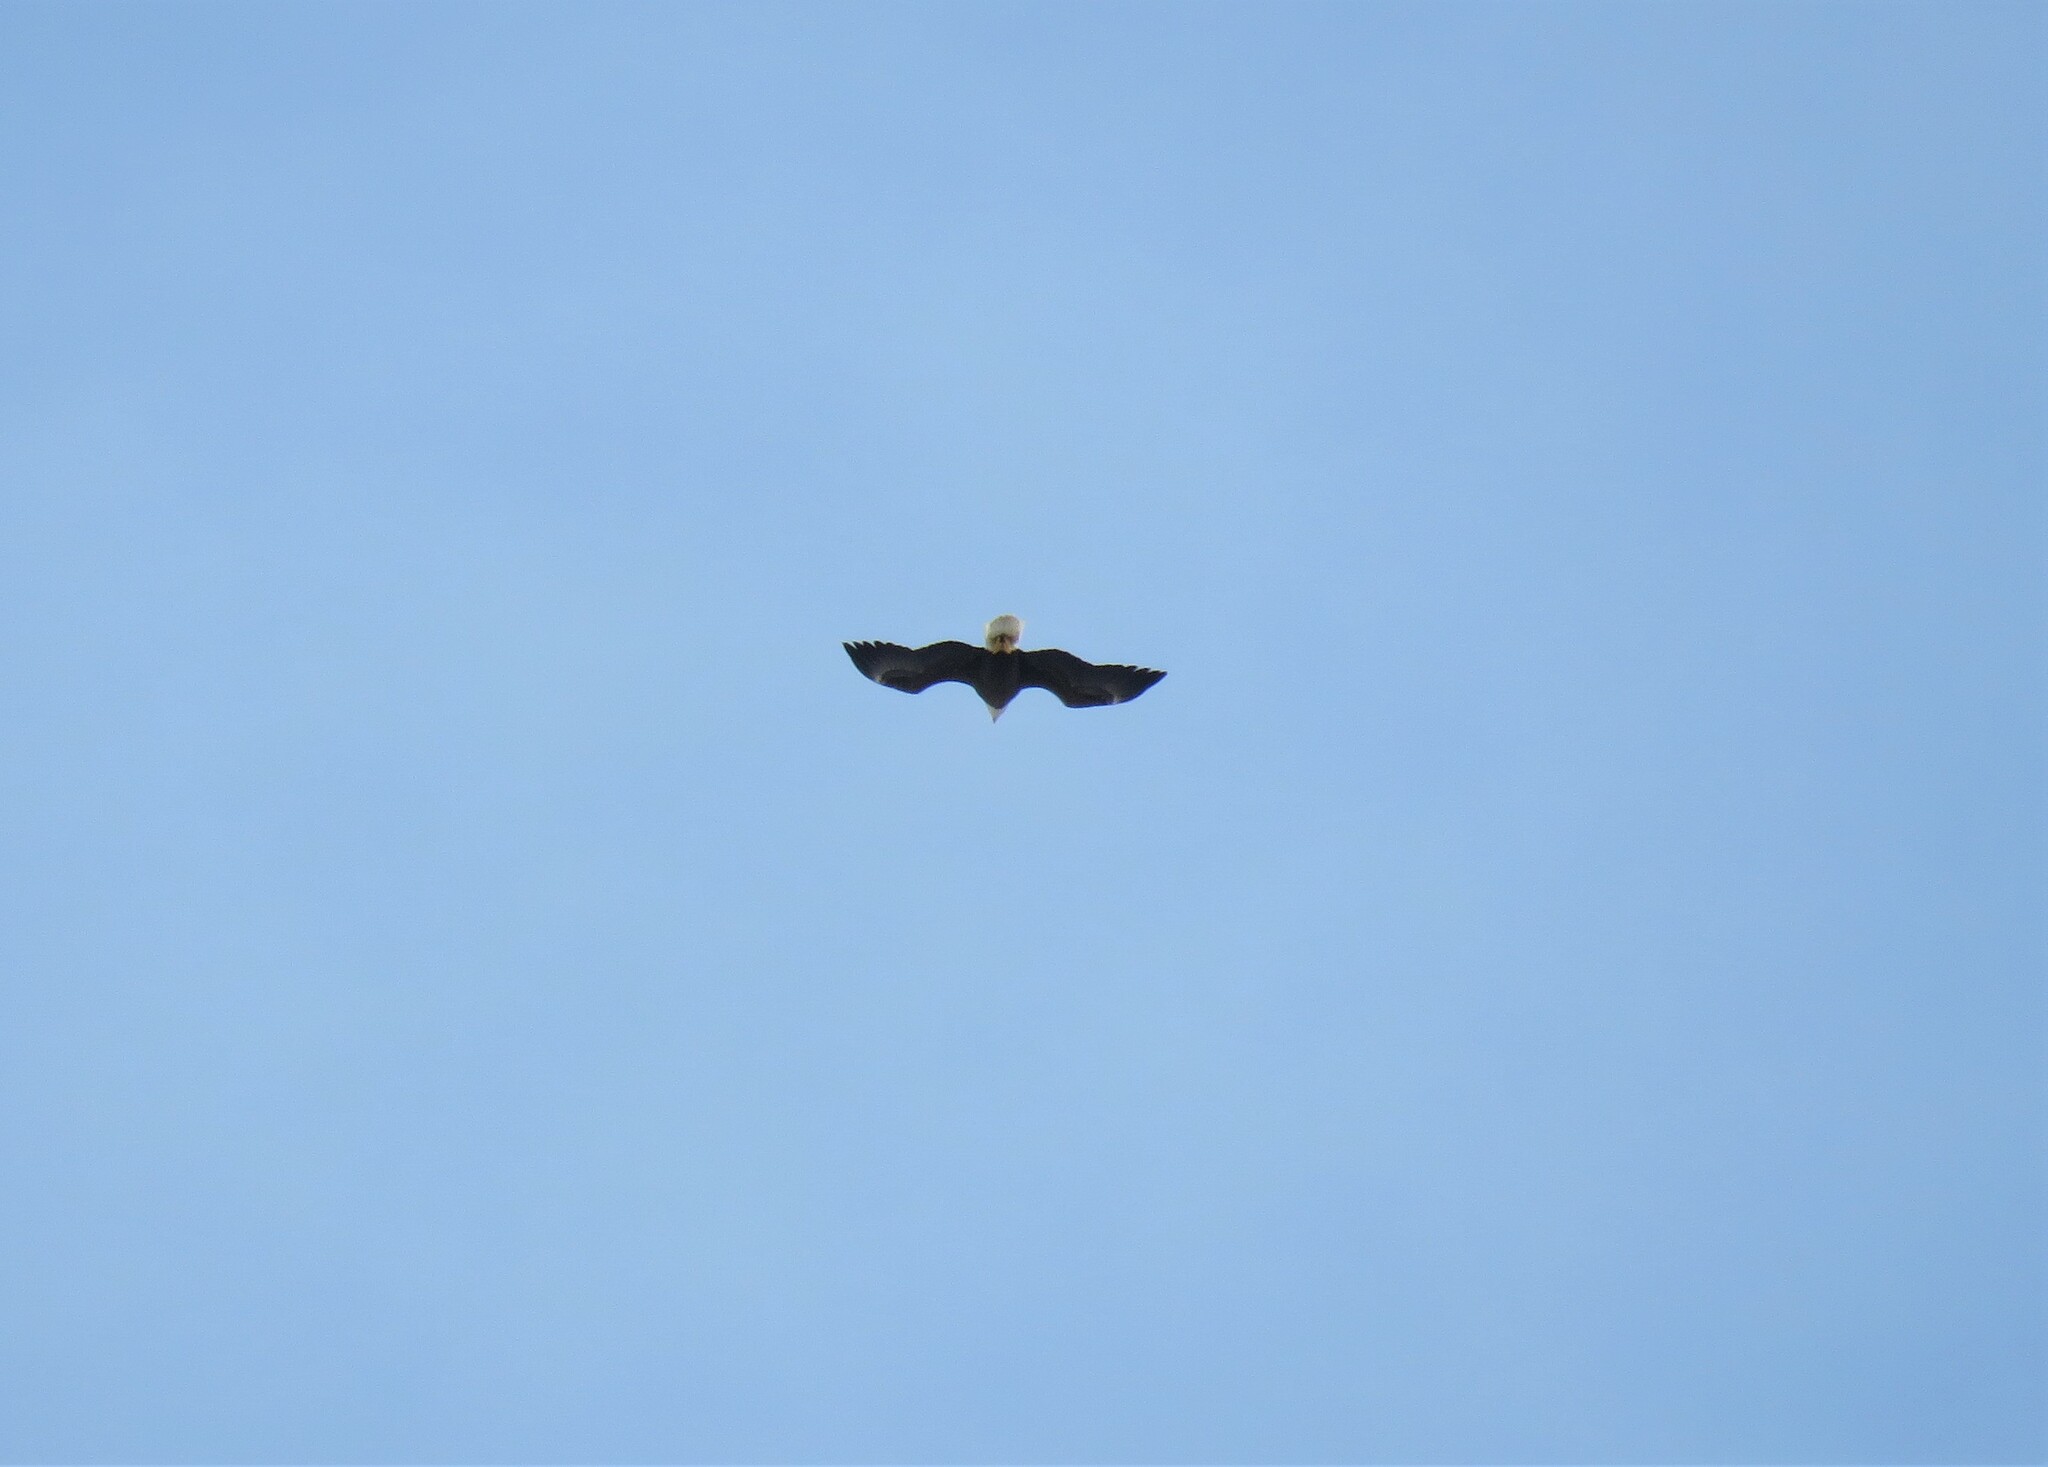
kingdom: Animalia
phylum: Chordata
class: Aves
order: Accipitriformes
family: Accipitridae
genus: Haliaeetus
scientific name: Haliaeetus leucocephalus
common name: Bald eagle
